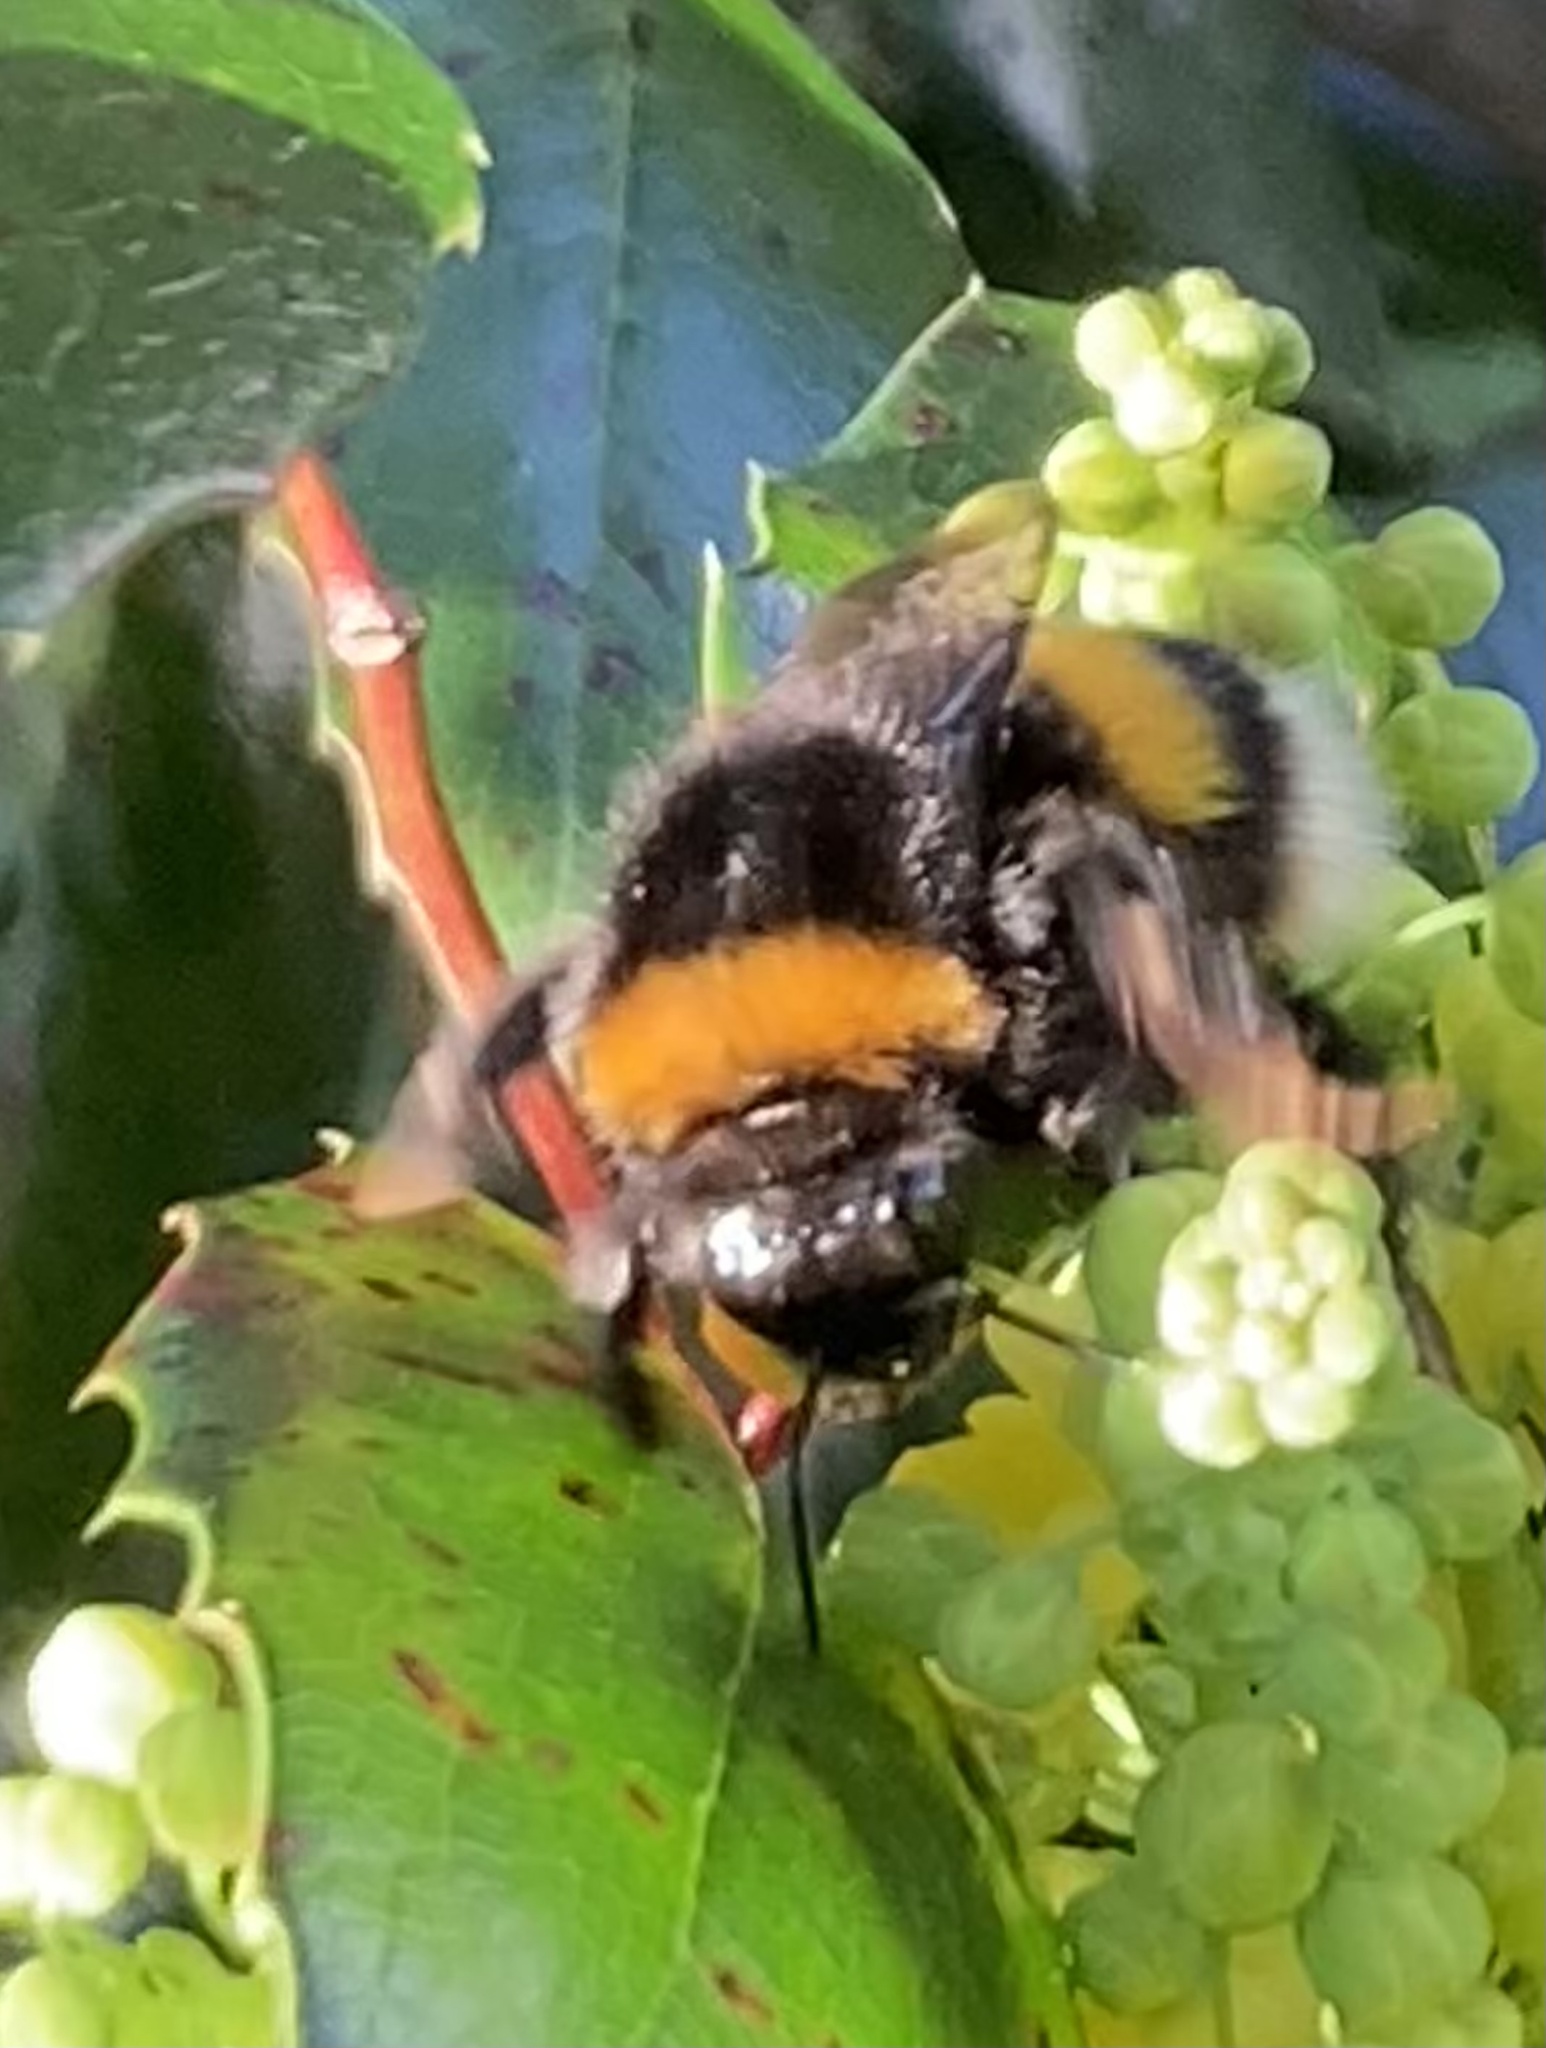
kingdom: Animalia
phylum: Arthropoda
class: Insecta
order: Hymenoptera
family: Apidae
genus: Bombus
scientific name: Bombus
